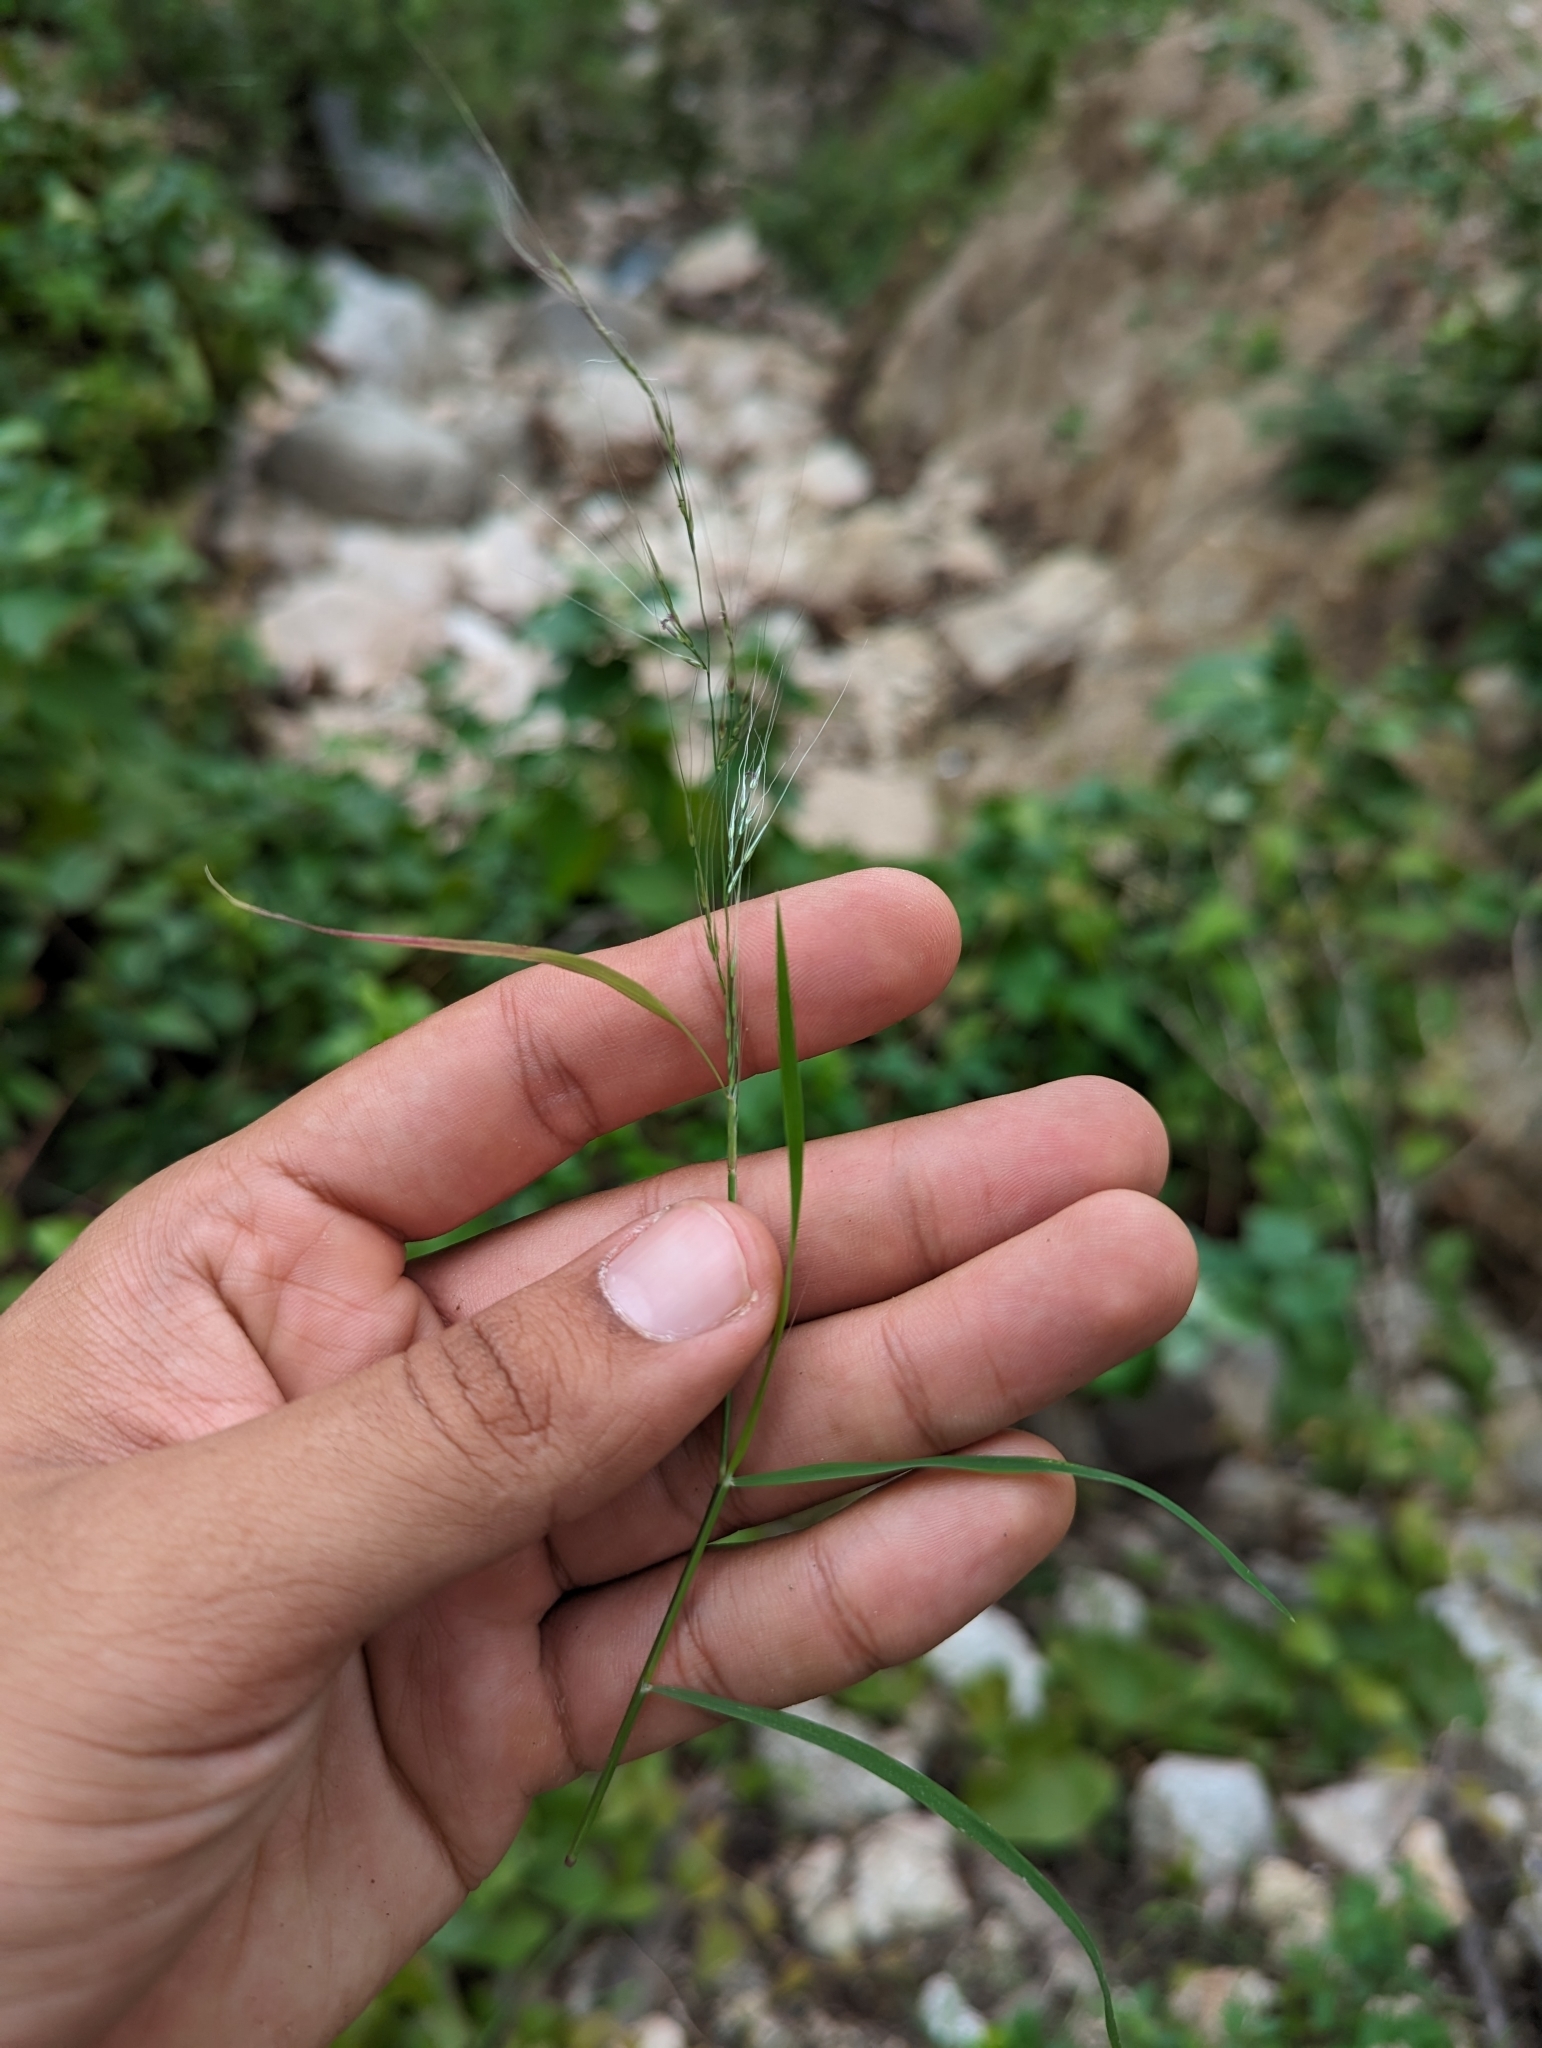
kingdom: Plantae
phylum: Tracheophyta
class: Liliopsida
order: Poales
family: Poaceae
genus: Muhlenbergia
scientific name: Muhlenbergia microsperma
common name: Littleseed muhly
